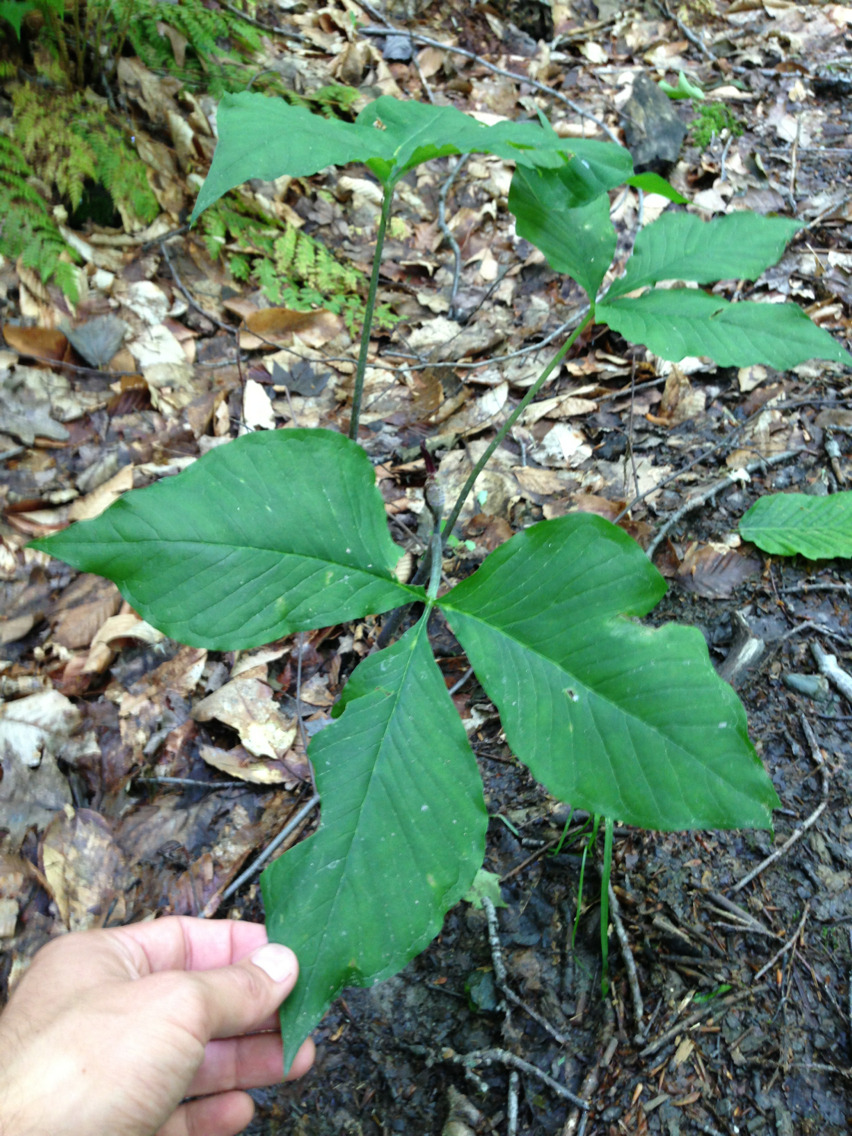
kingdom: Plantae
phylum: Tracheophyta
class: Liliopsida
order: Alismatales
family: Araceae
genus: Arisaema
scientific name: Arisaema triphyllum
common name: Jack-in-the-pulpit
